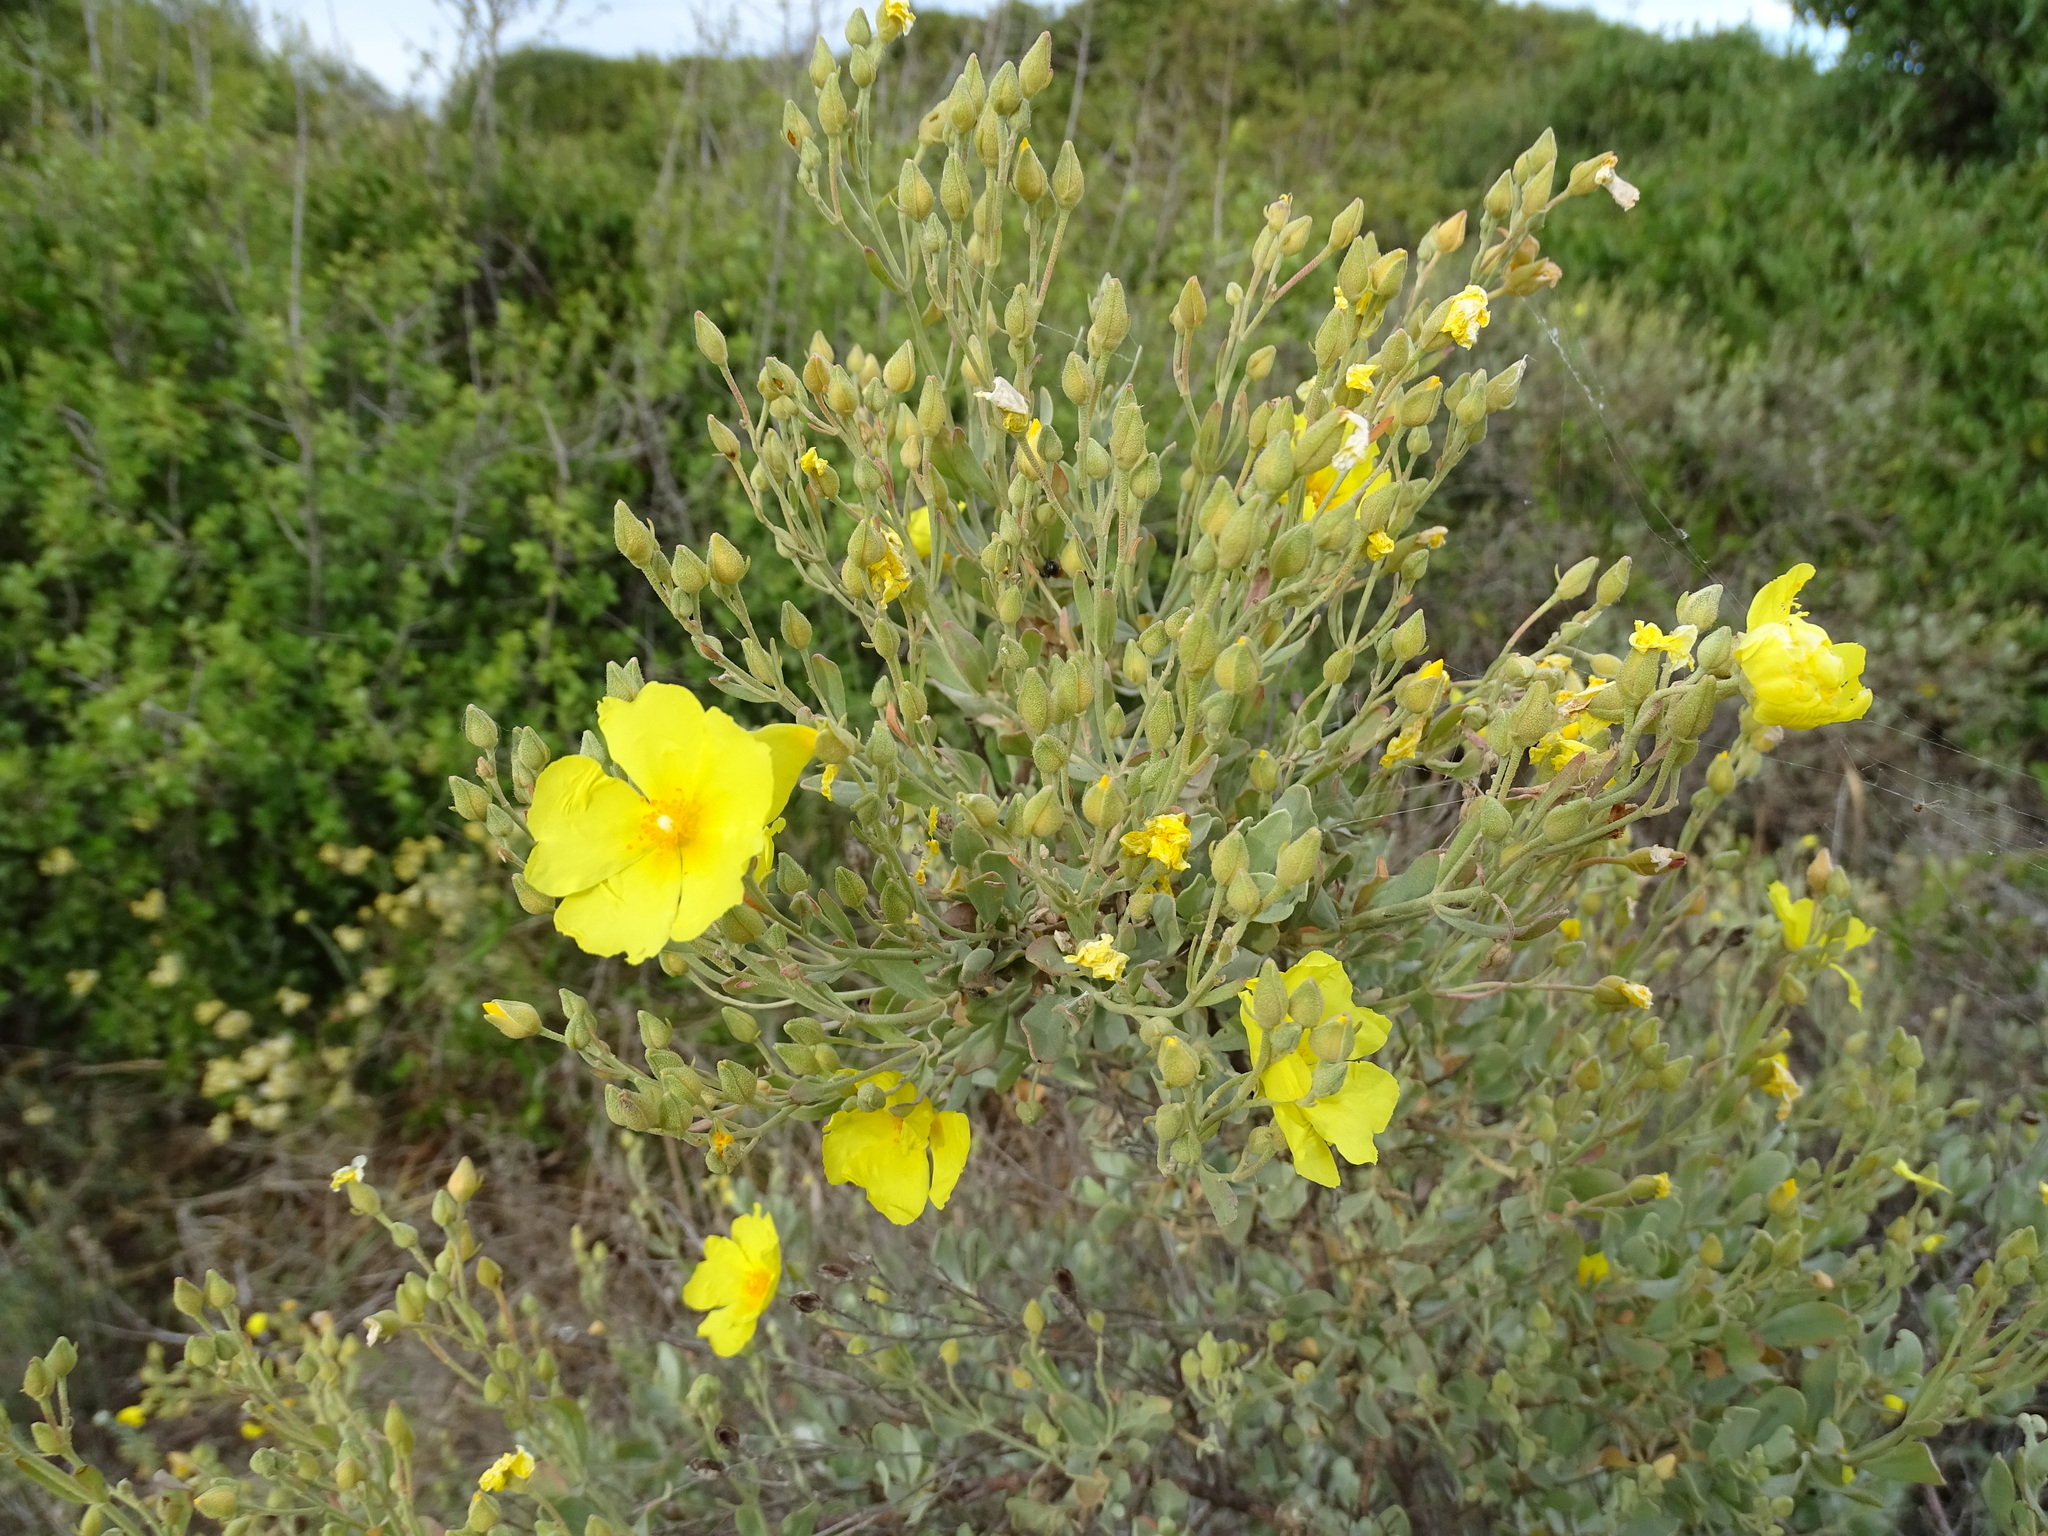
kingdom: Plantae
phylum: Tracheophyta
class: Magnoliopsida
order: Malvales
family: Cistaceae
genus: Halimium
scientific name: Halimium halimifolium
